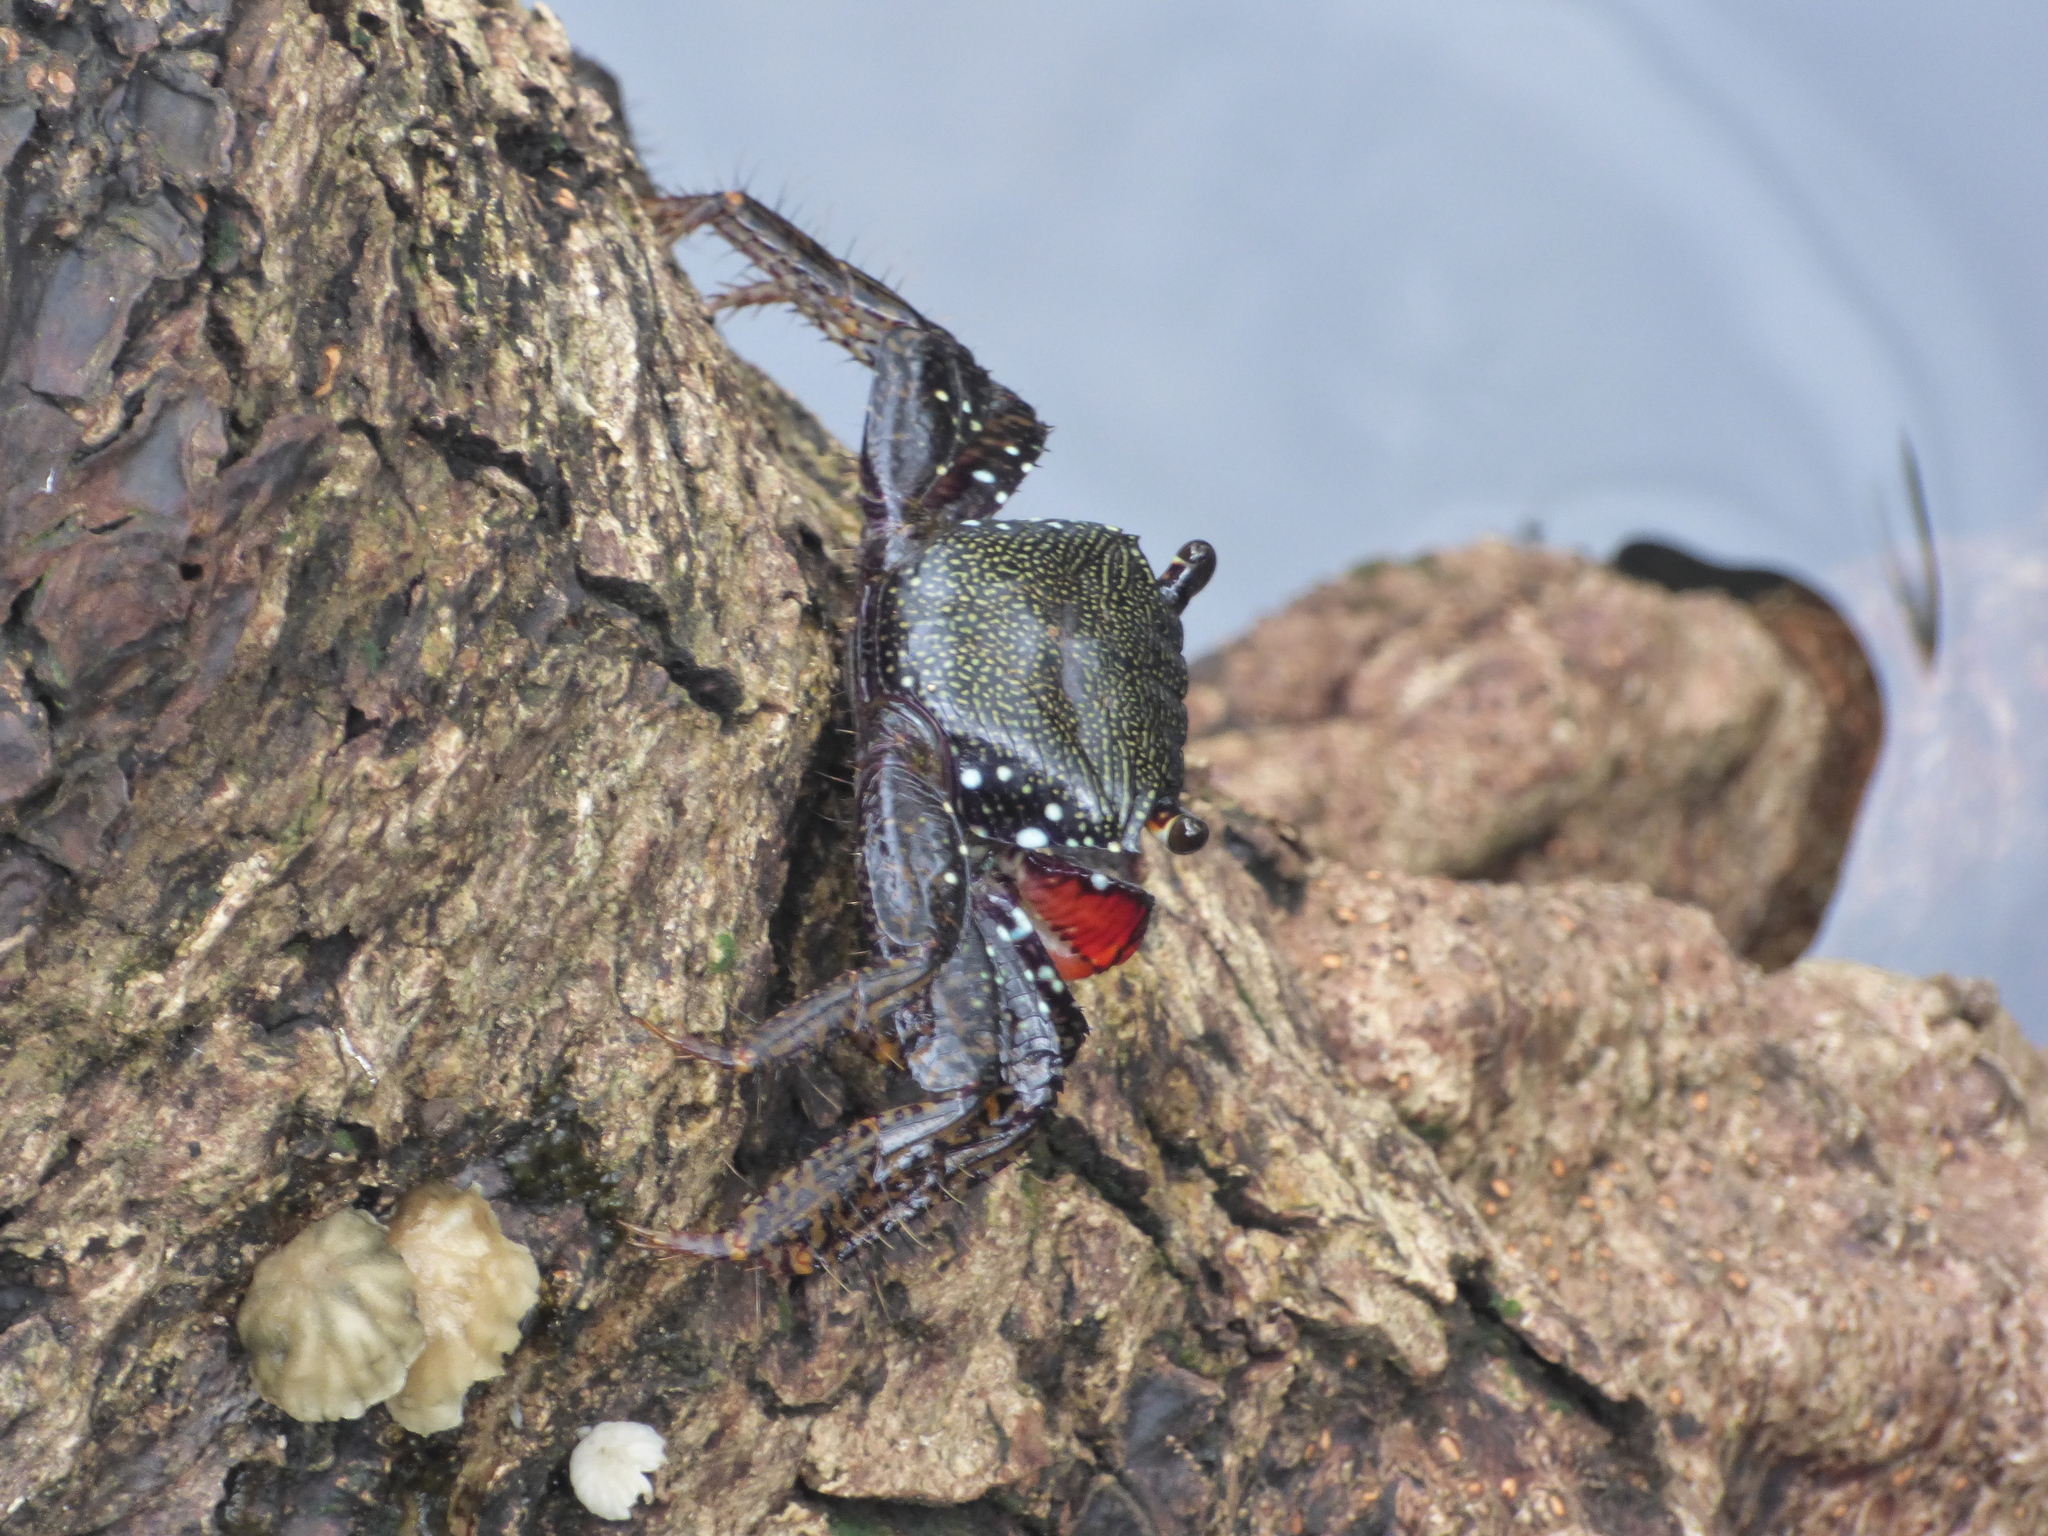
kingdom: Animalia
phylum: Arthropoda
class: Malacostraca
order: Decapoda
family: Grapsidae
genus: Goniopsis
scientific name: Goniopsis pulchra
